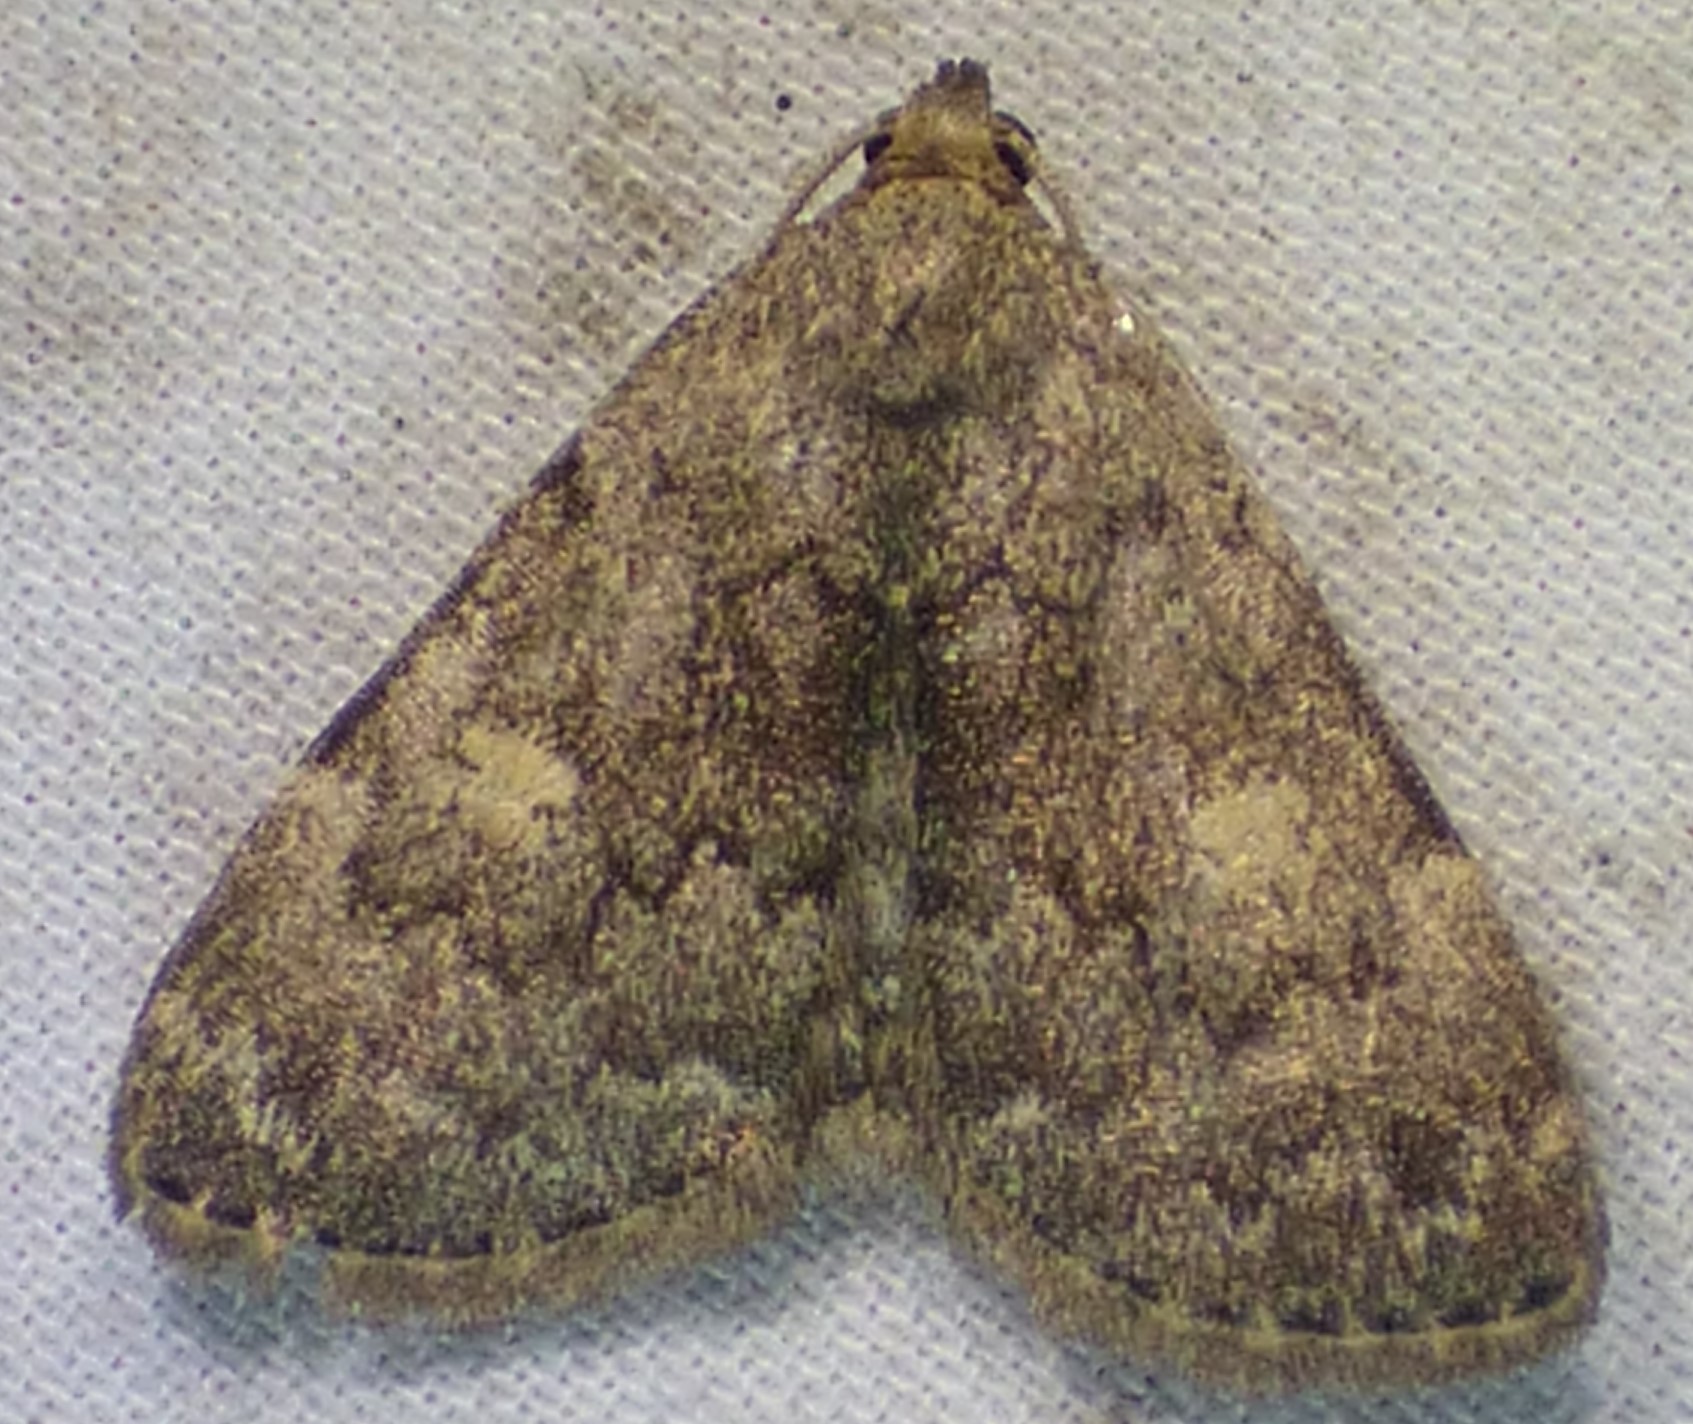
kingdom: Animalia
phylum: Arthropoda
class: Insecta
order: Lepidoptera
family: Erebidae
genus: Idia
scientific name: Idia aemula
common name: Common idia moth
